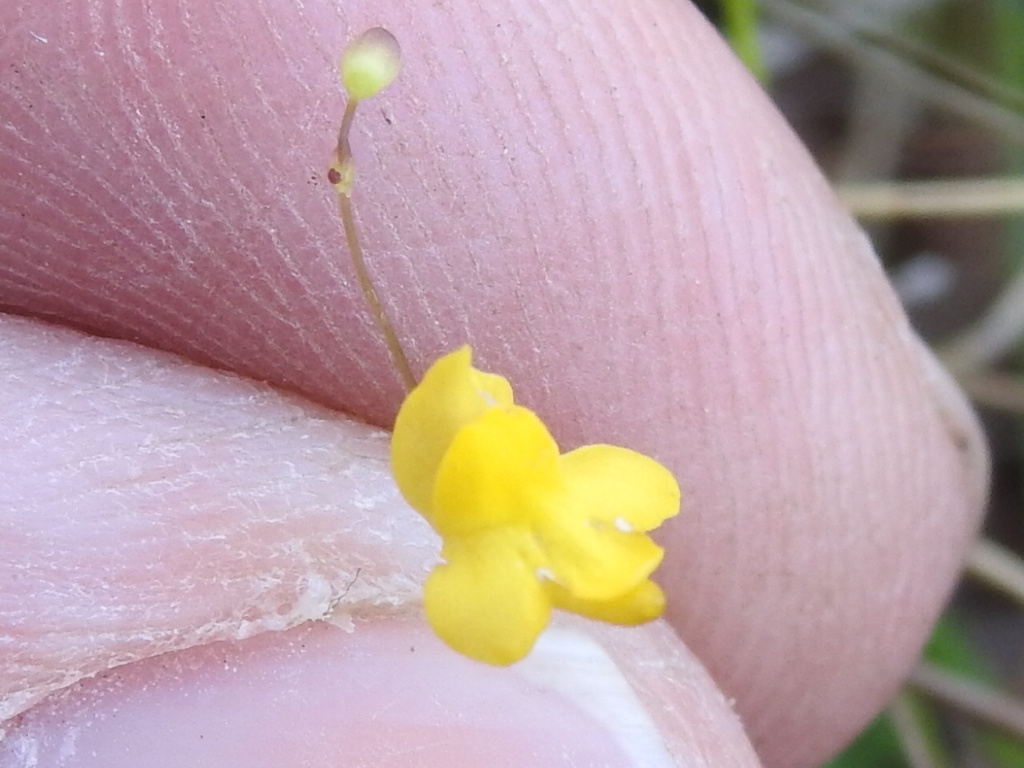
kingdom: Plantae
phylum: Tracheophyta
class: Magnoliopsida
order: Lamiales
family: Lentibulariaceae
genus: Utricularia
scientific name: Utricularia subulata
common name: Tiny bladderwort
